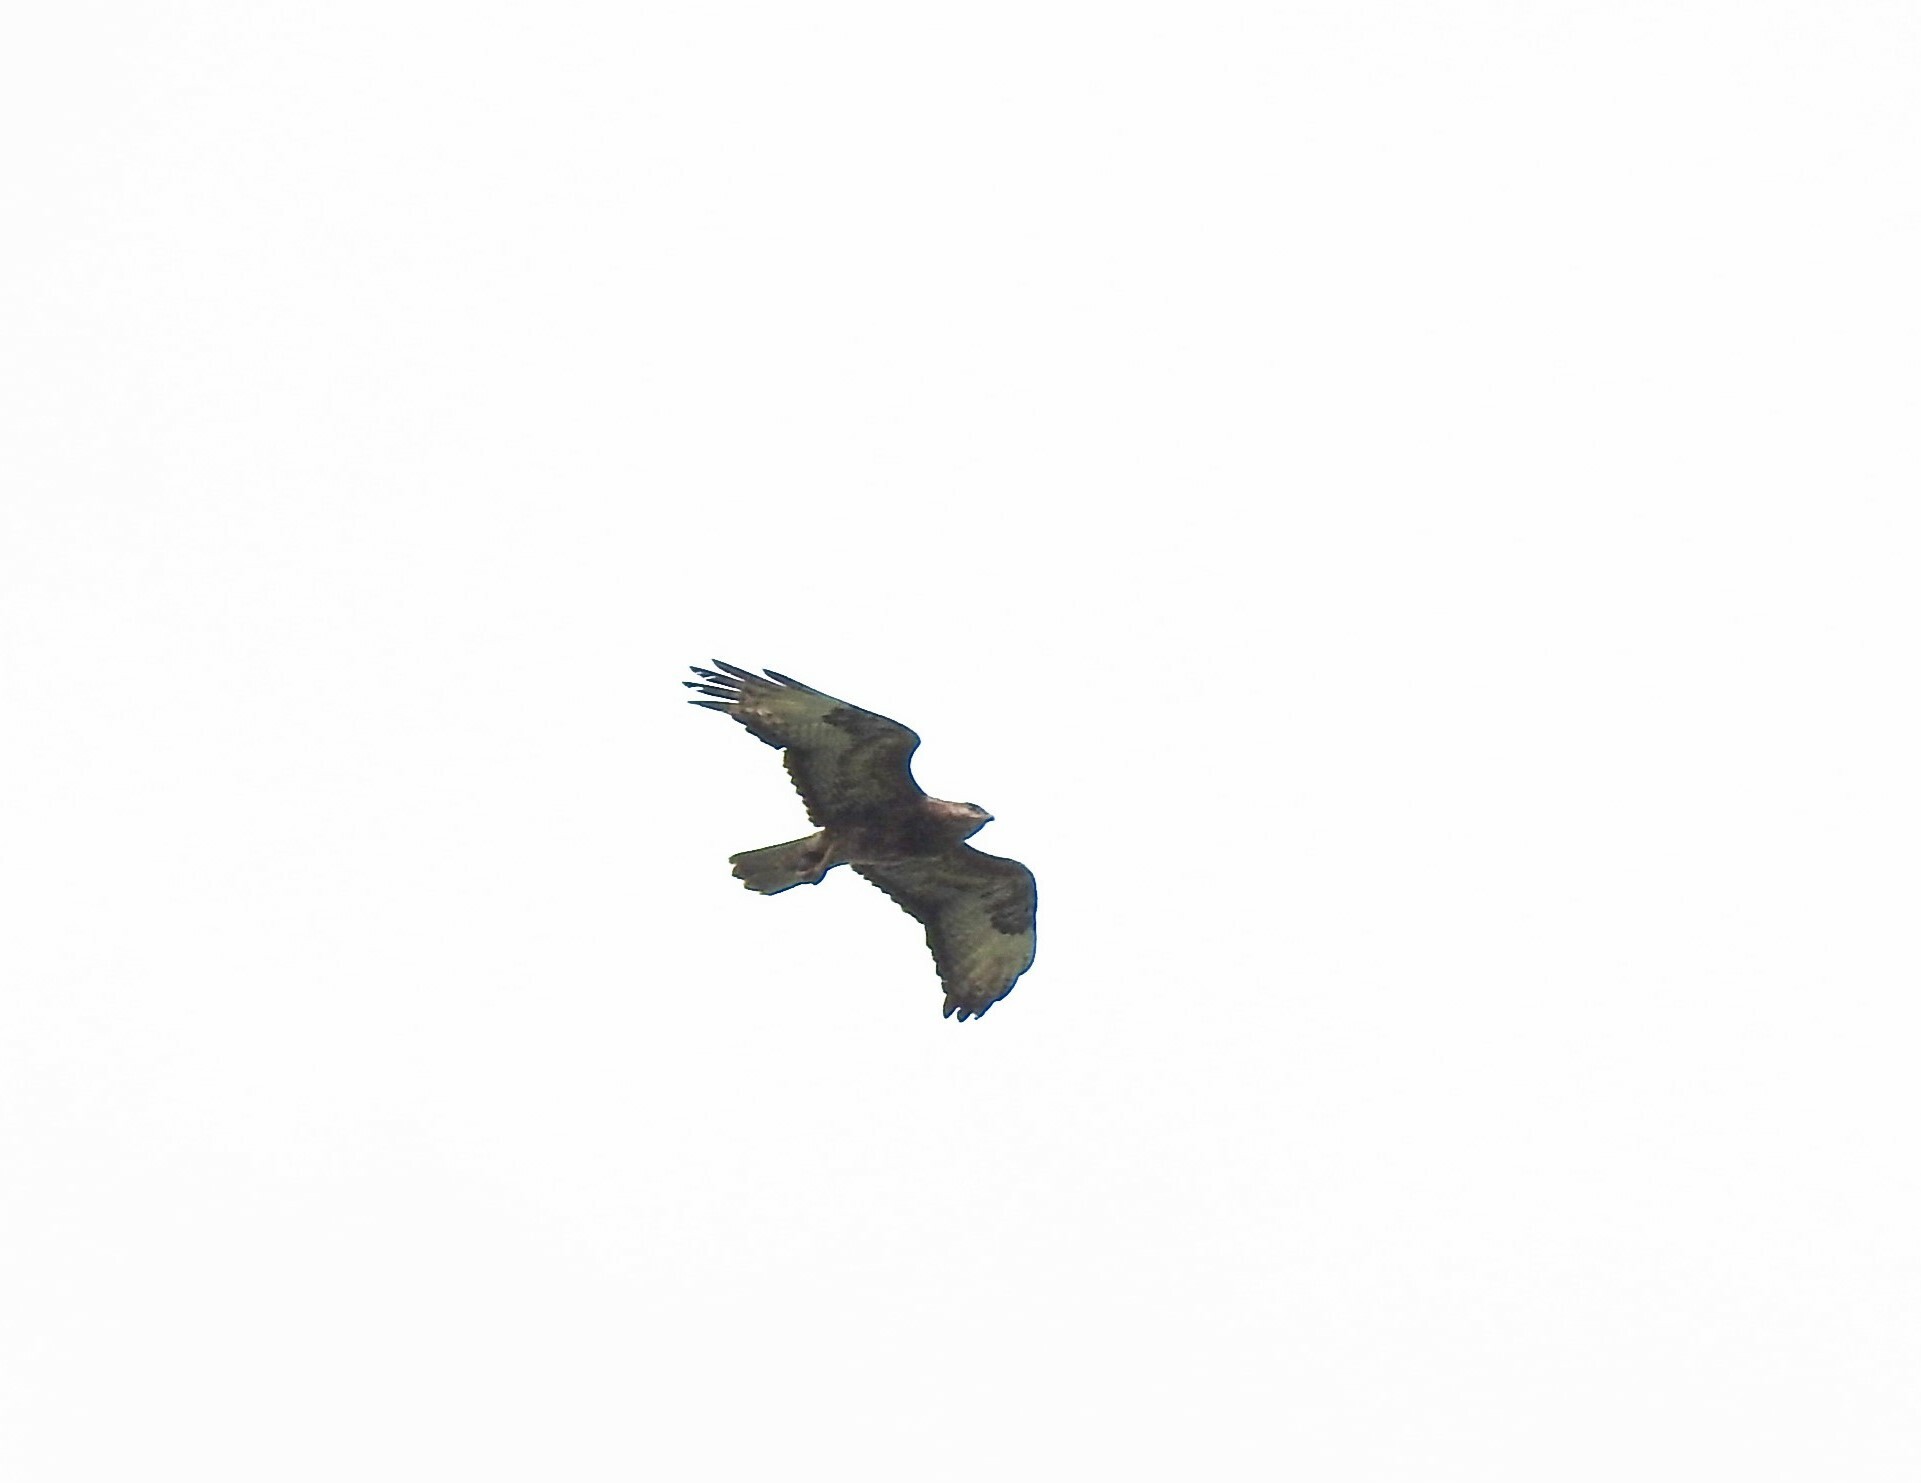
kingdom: Animalia
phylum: Chordata
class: Aves
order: Accipitriformes
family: Accipitridae
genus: Buteo
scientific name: Buteo buteo
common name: Common buzzard
